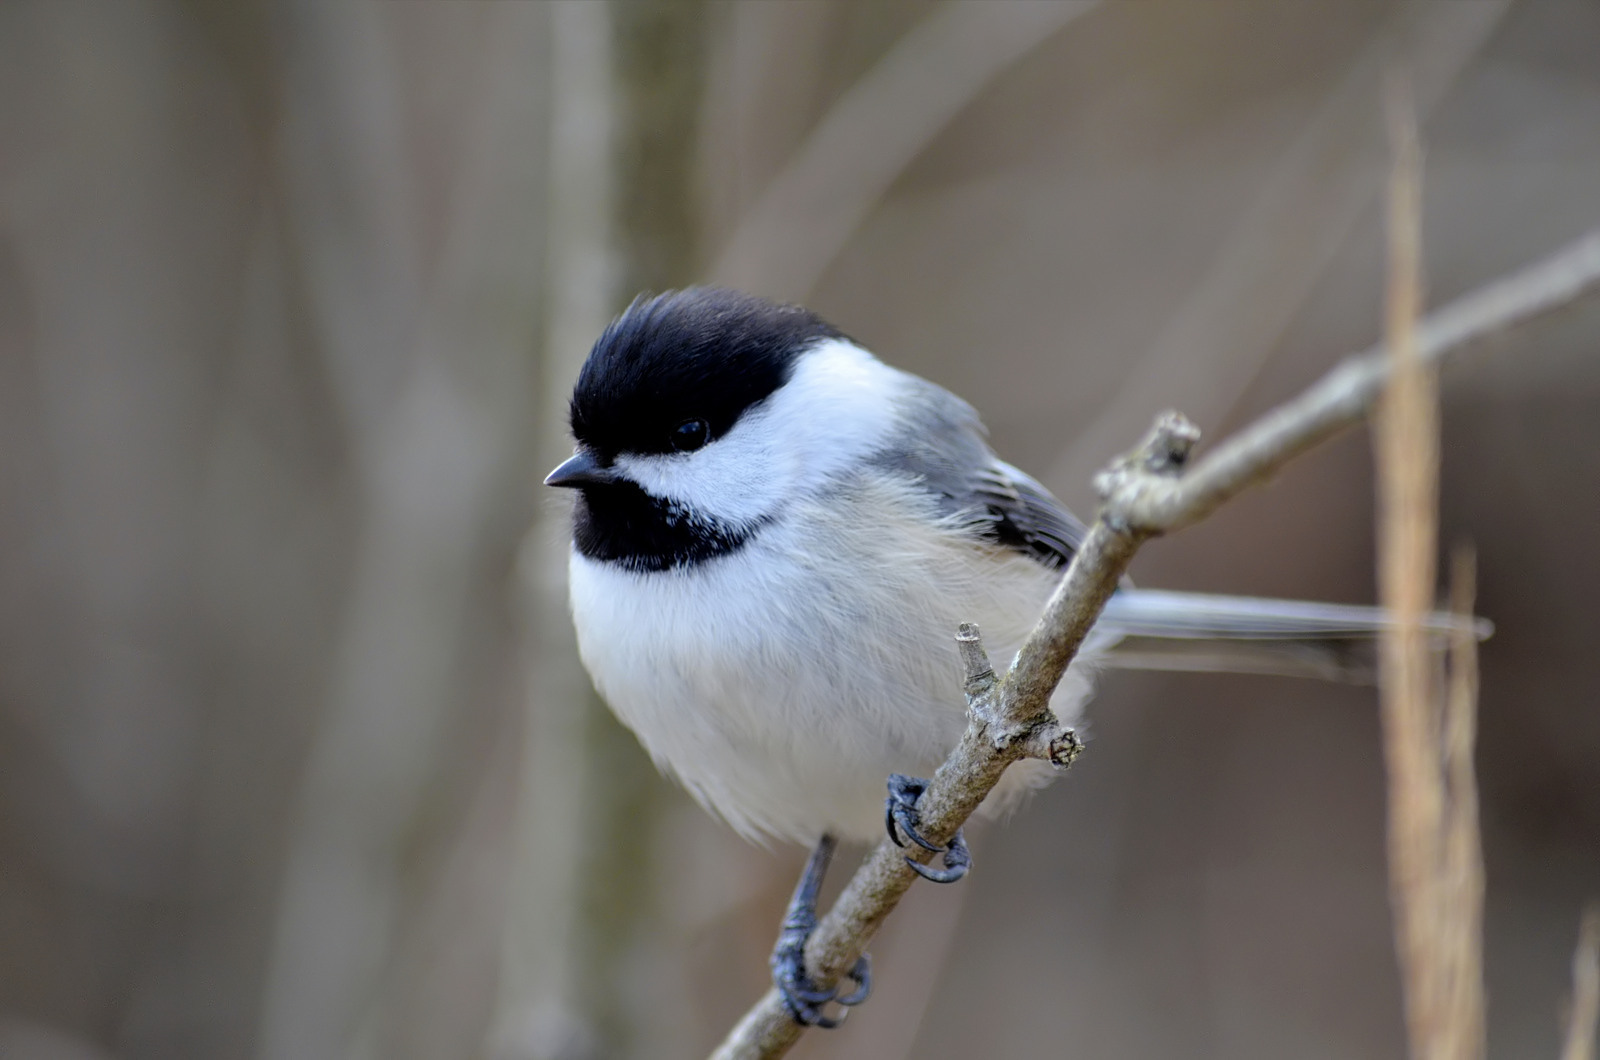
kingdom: Animalia
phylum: Chordata
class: Aves
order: Passeriformes
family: Paridae
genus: Poecile
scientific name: Poecile atricapillus
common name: Black-capped chickadee
